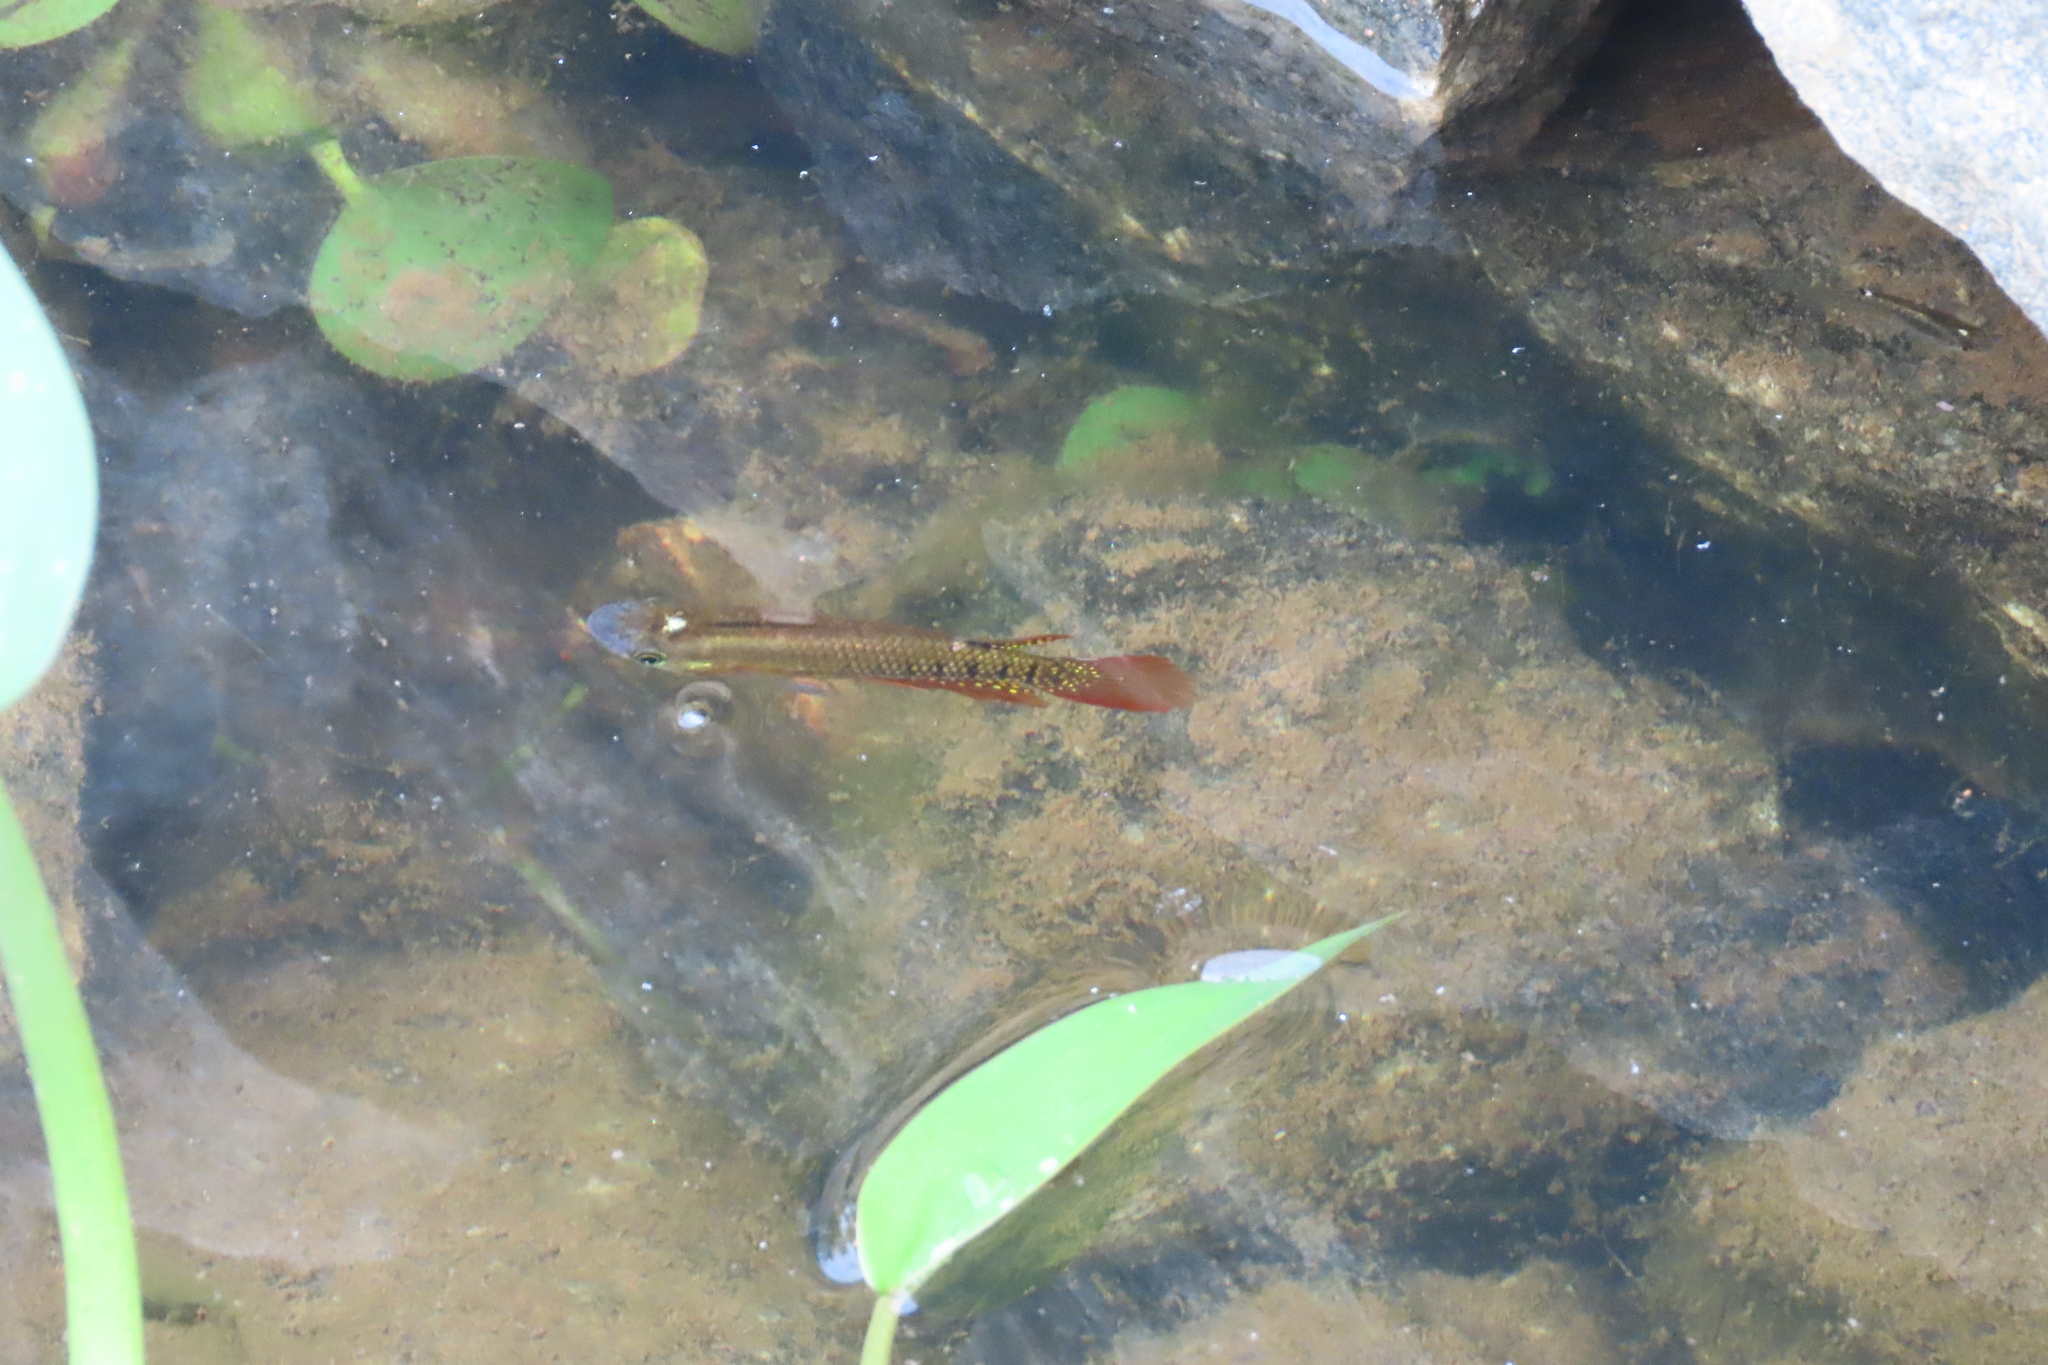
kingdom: Animalia
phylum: Chordata
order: Cyprinodontiformes
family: Aplocheilidae
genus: Aplocheilus
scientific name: Aplocheilus lineatus
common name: Striped panchax
